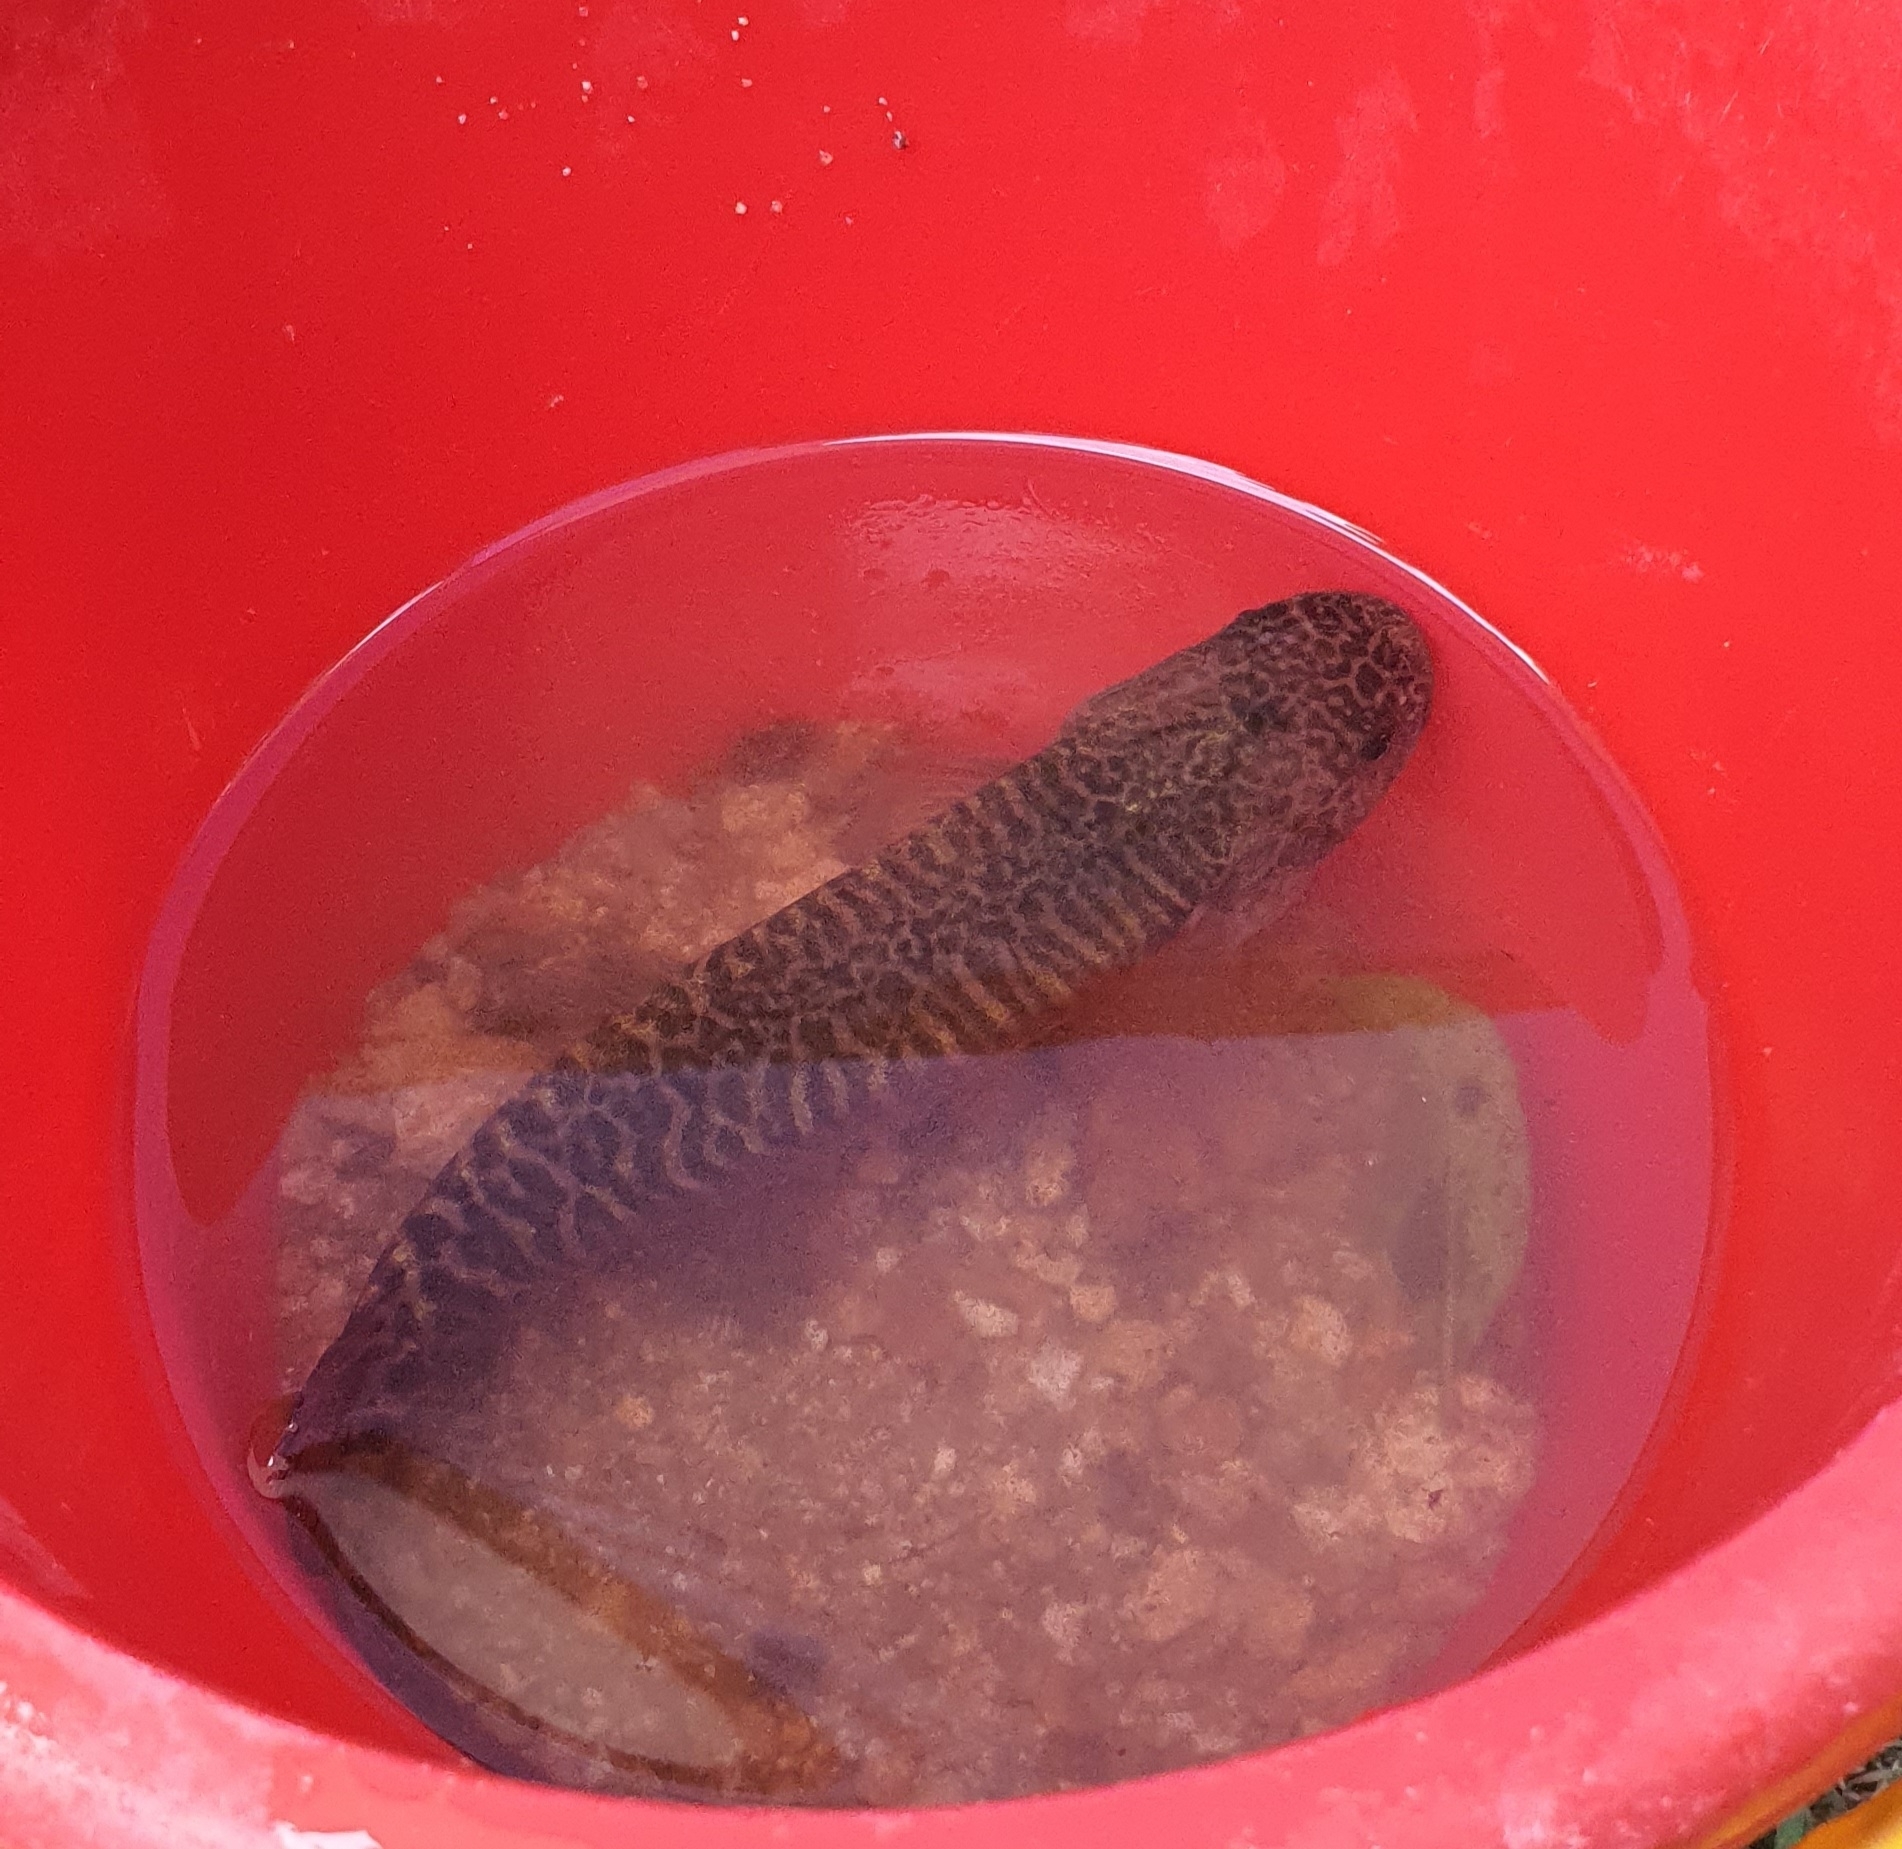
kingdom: Animalia
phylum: Chordata
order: Osmeriformes
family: Galaxiidae
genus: Galaxias
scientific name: Galaxias brevipinnis
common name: Koaro
